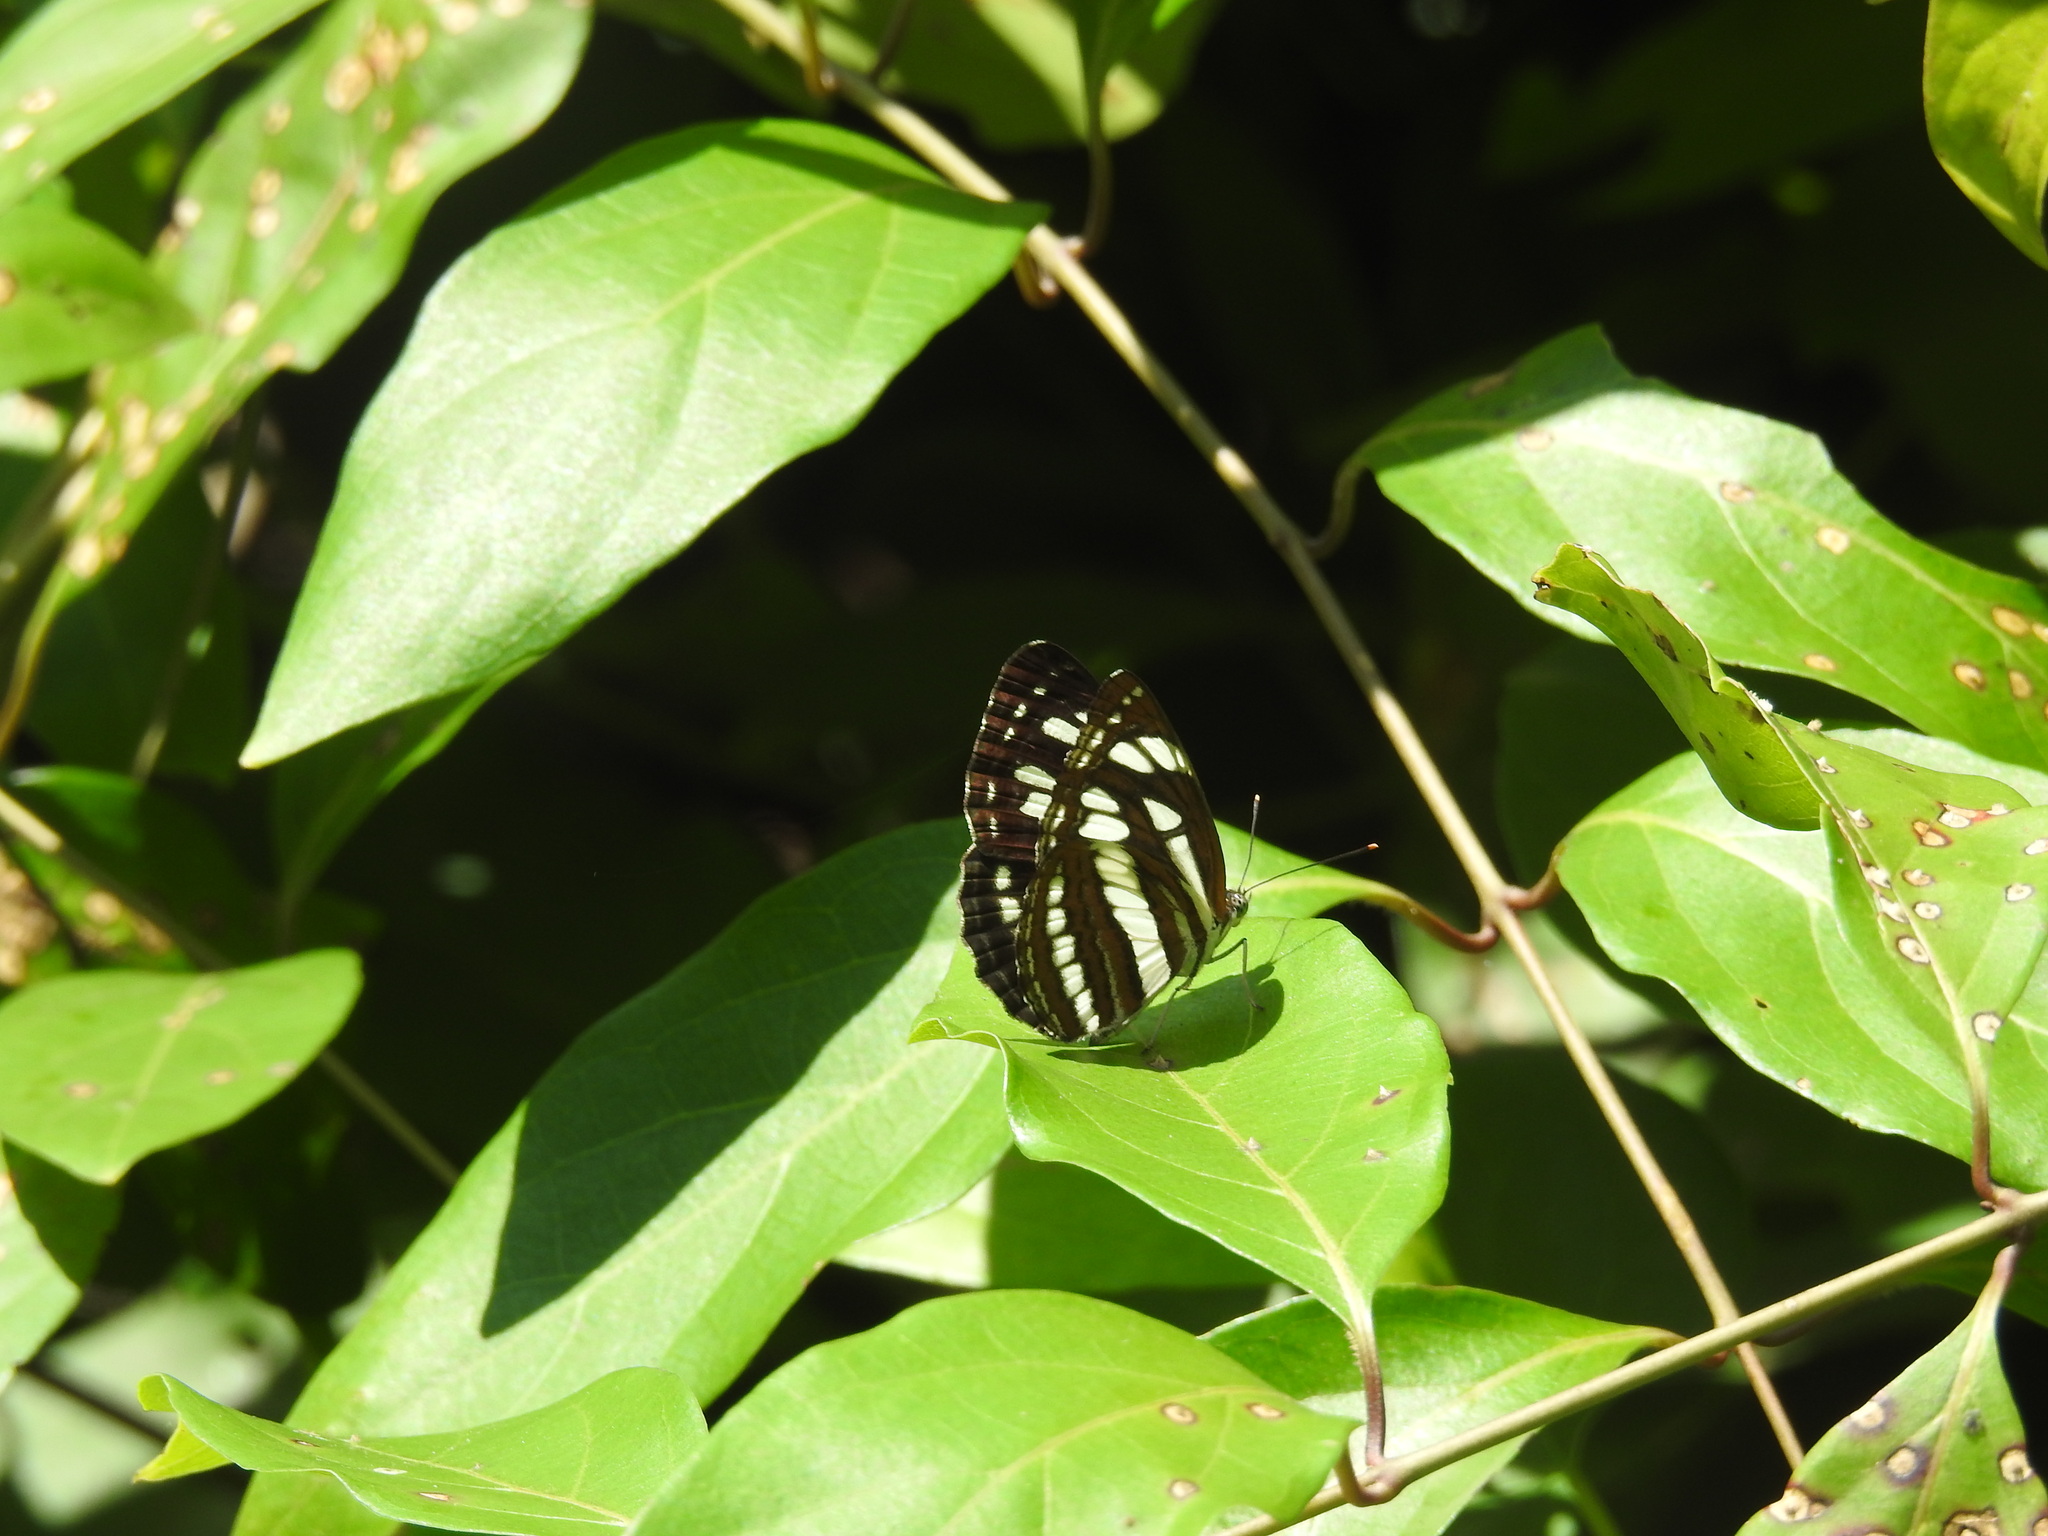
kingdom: Animalia
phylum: Arthropoda
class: Insecta
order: Lepidoptera
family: Nymphalidae
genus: Neptis
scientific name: Neptis hylas
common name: Common sailer
